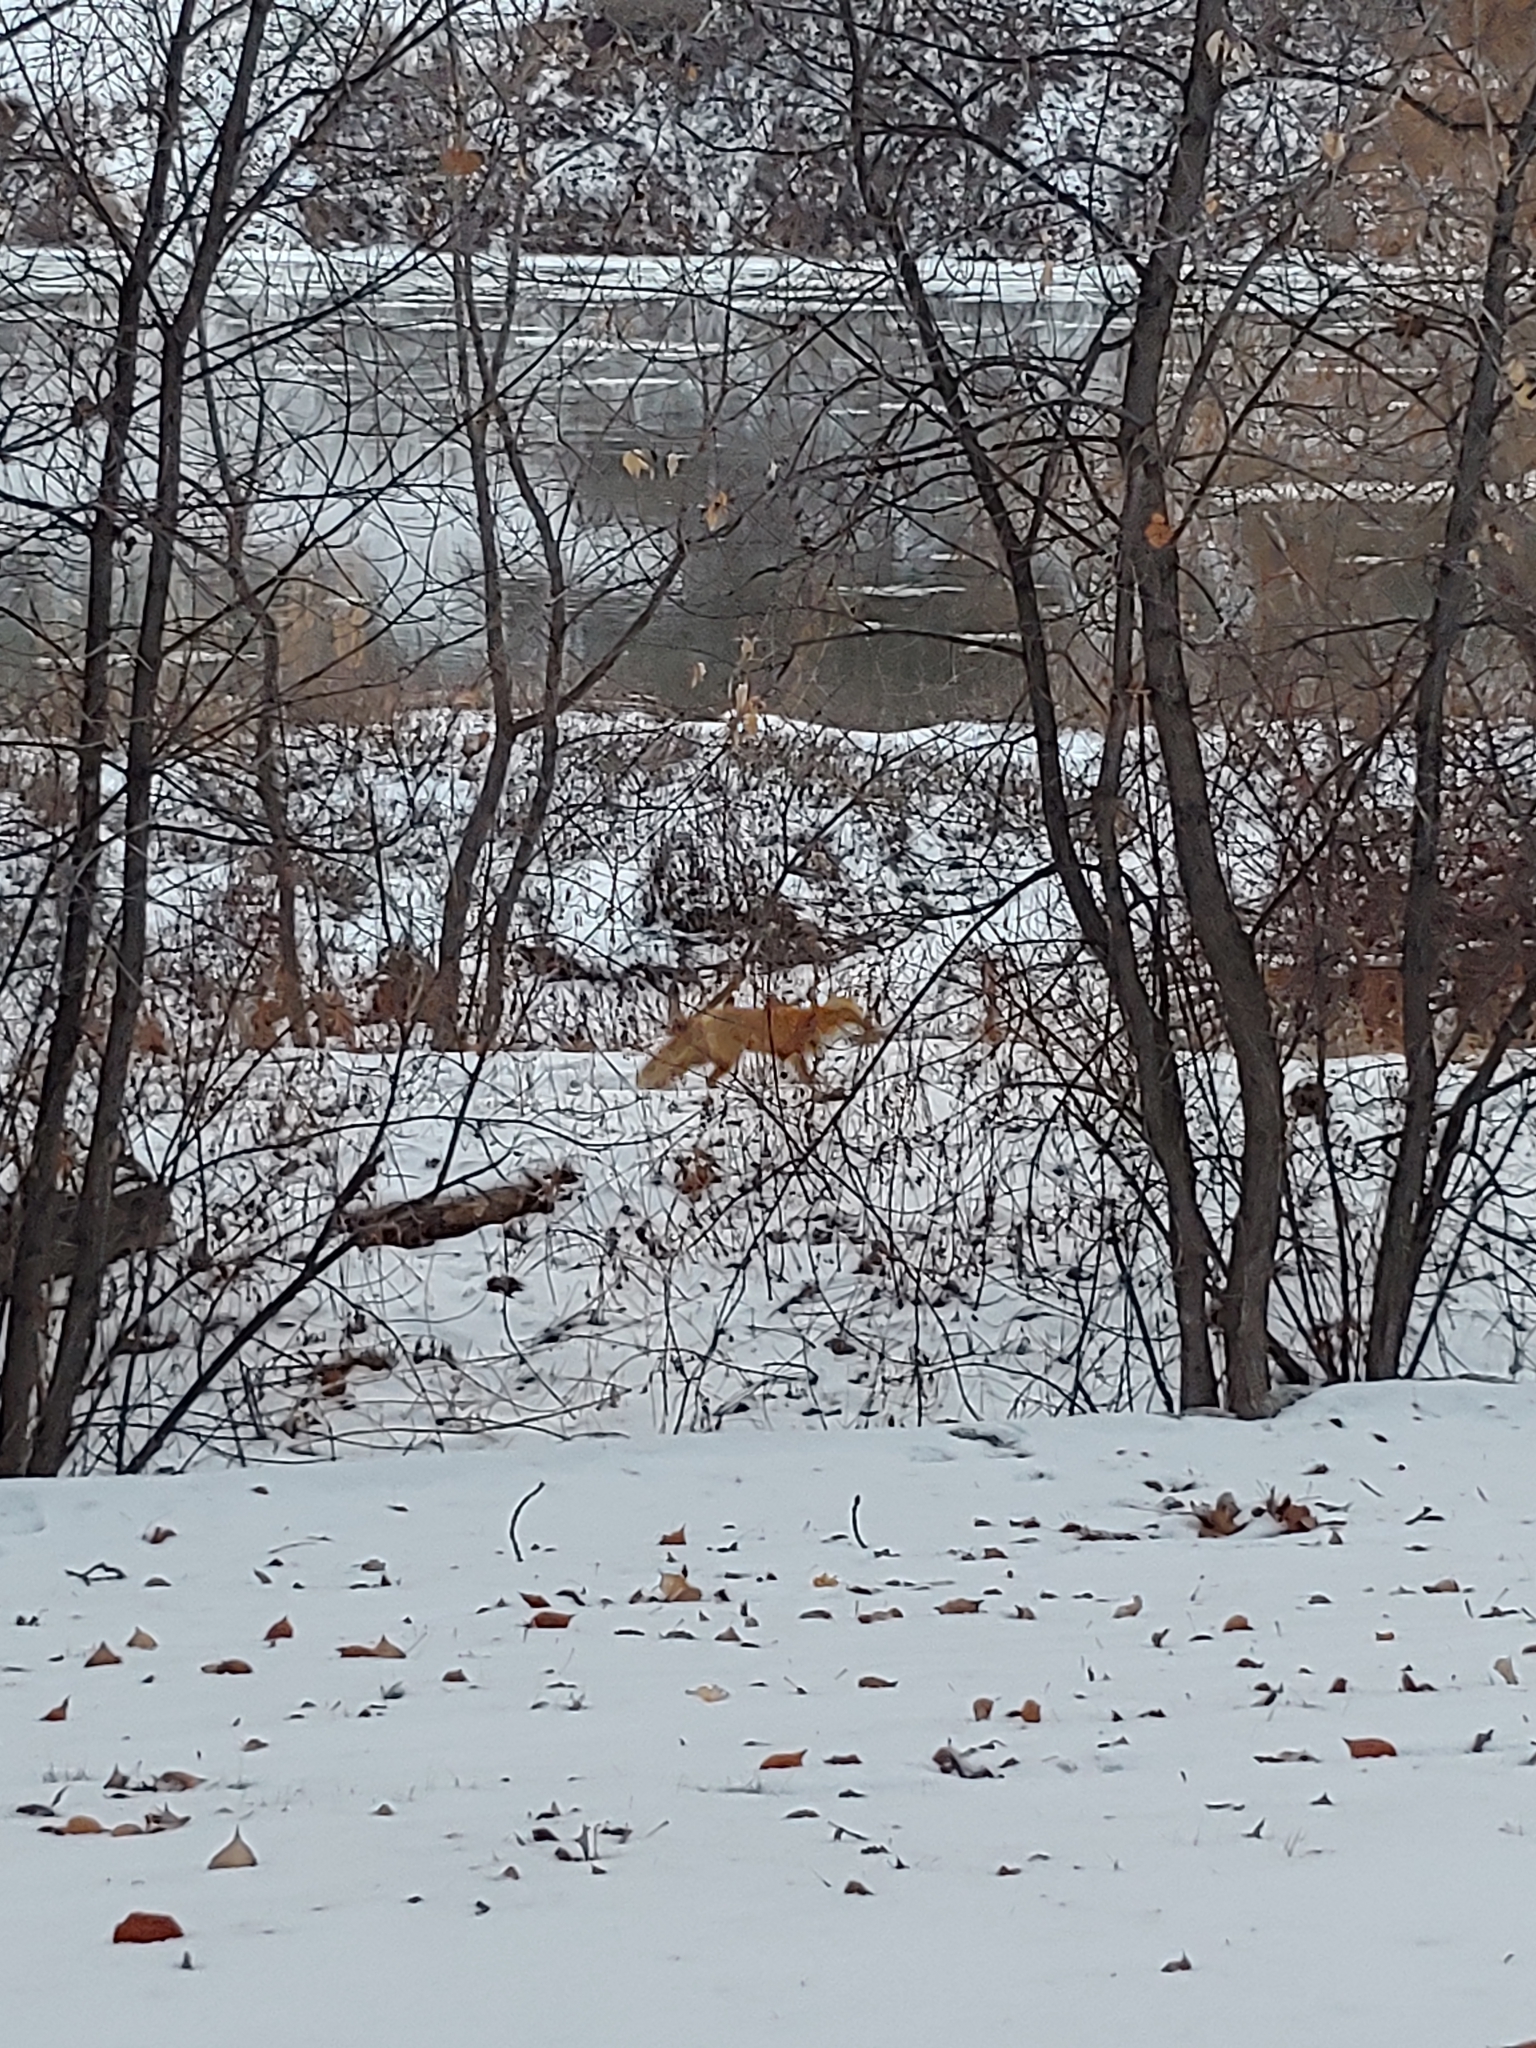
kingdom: Animalia
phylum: Chordata
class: Mammalia
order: Carnivora
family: Canidae
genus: Vulpes
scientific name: Vulpes vulpes
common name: Red fox
